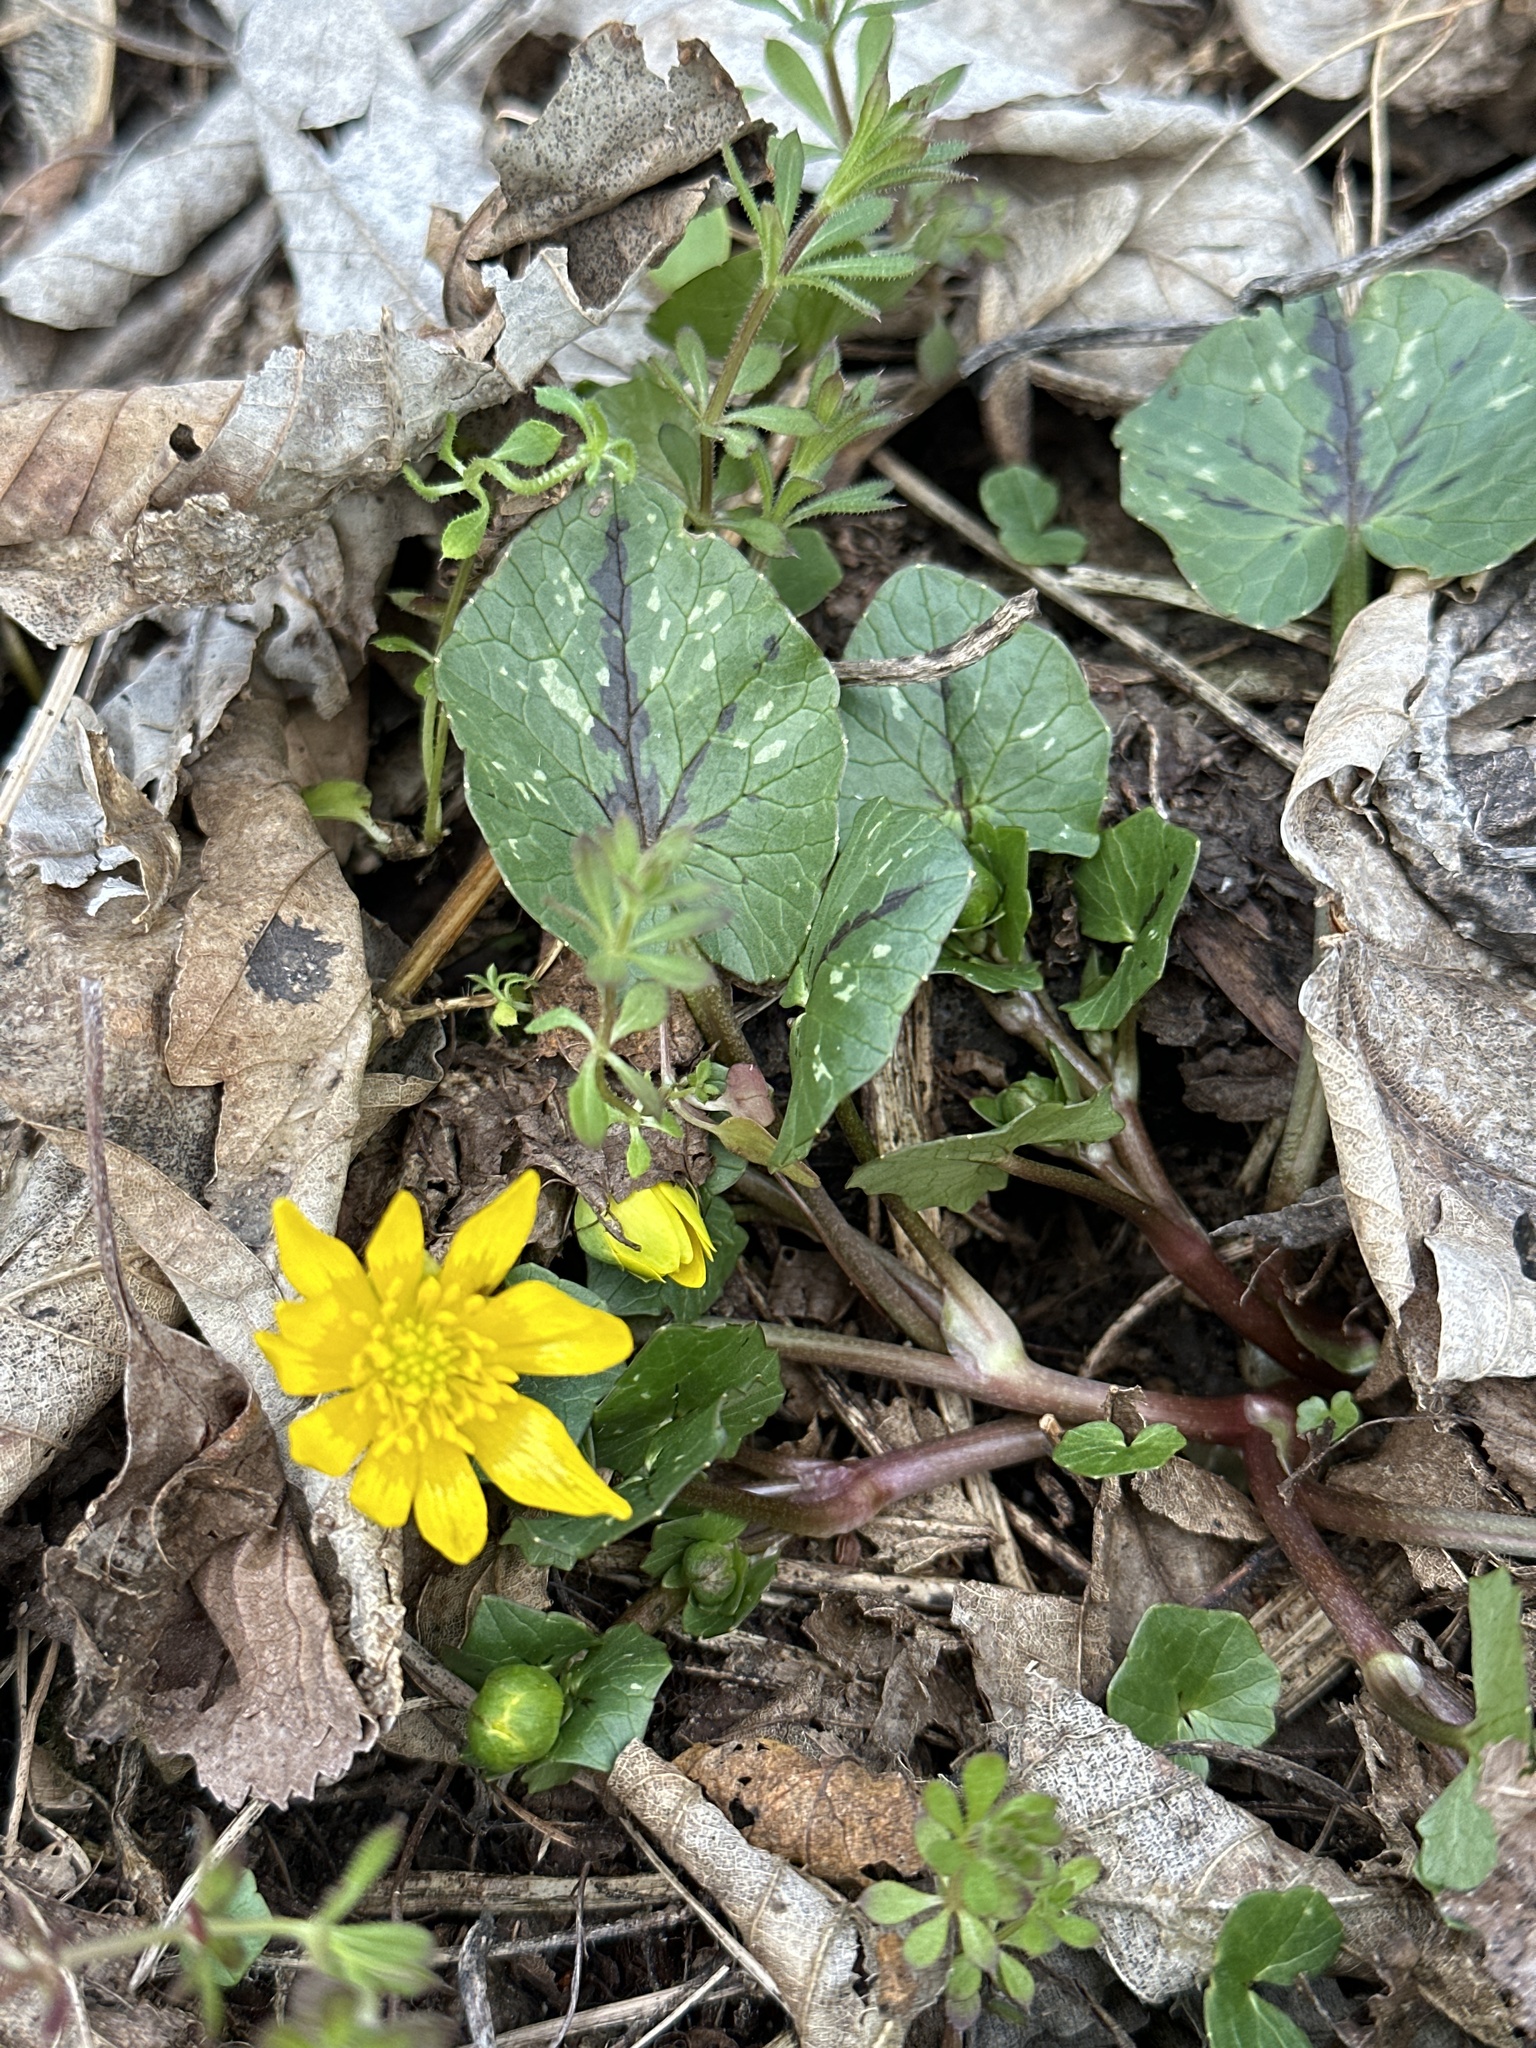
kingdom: Plantae
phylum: Tracheophyta
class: Magnoliopsida
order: Ranunculales
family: Ranunculaceae
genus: Ficaria
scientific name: Ficaria verna
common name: Lesser celandine
